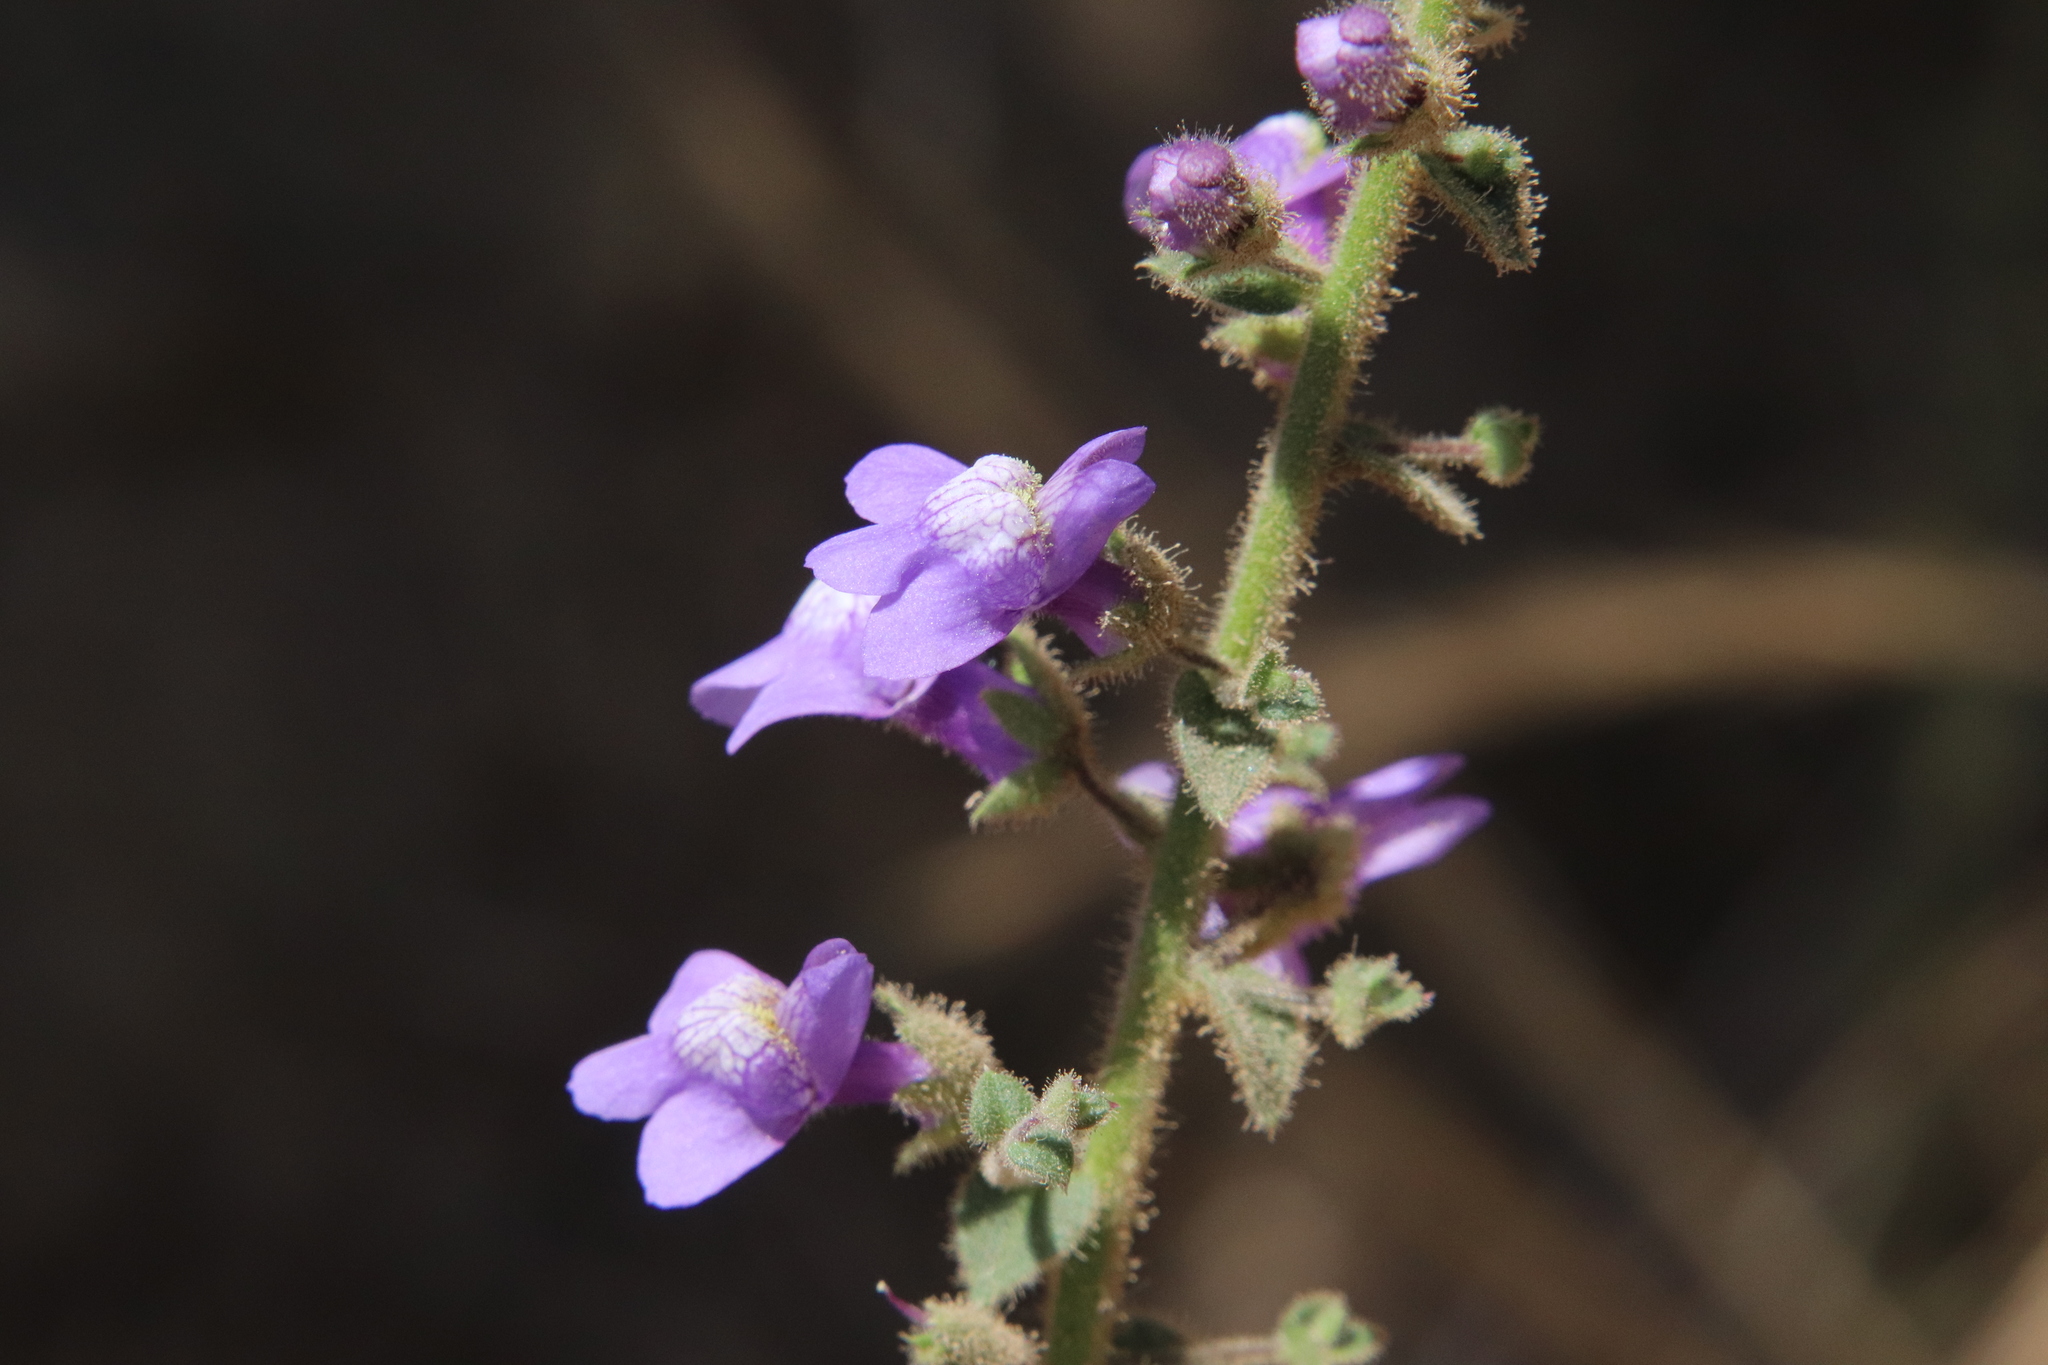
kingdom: Plantae
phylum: Tracheophyta
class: Magnoliopsida
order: Lamiales
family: Plantaginaceae
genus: Sairocarpus
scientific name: Sairocarpus nuttallianus
